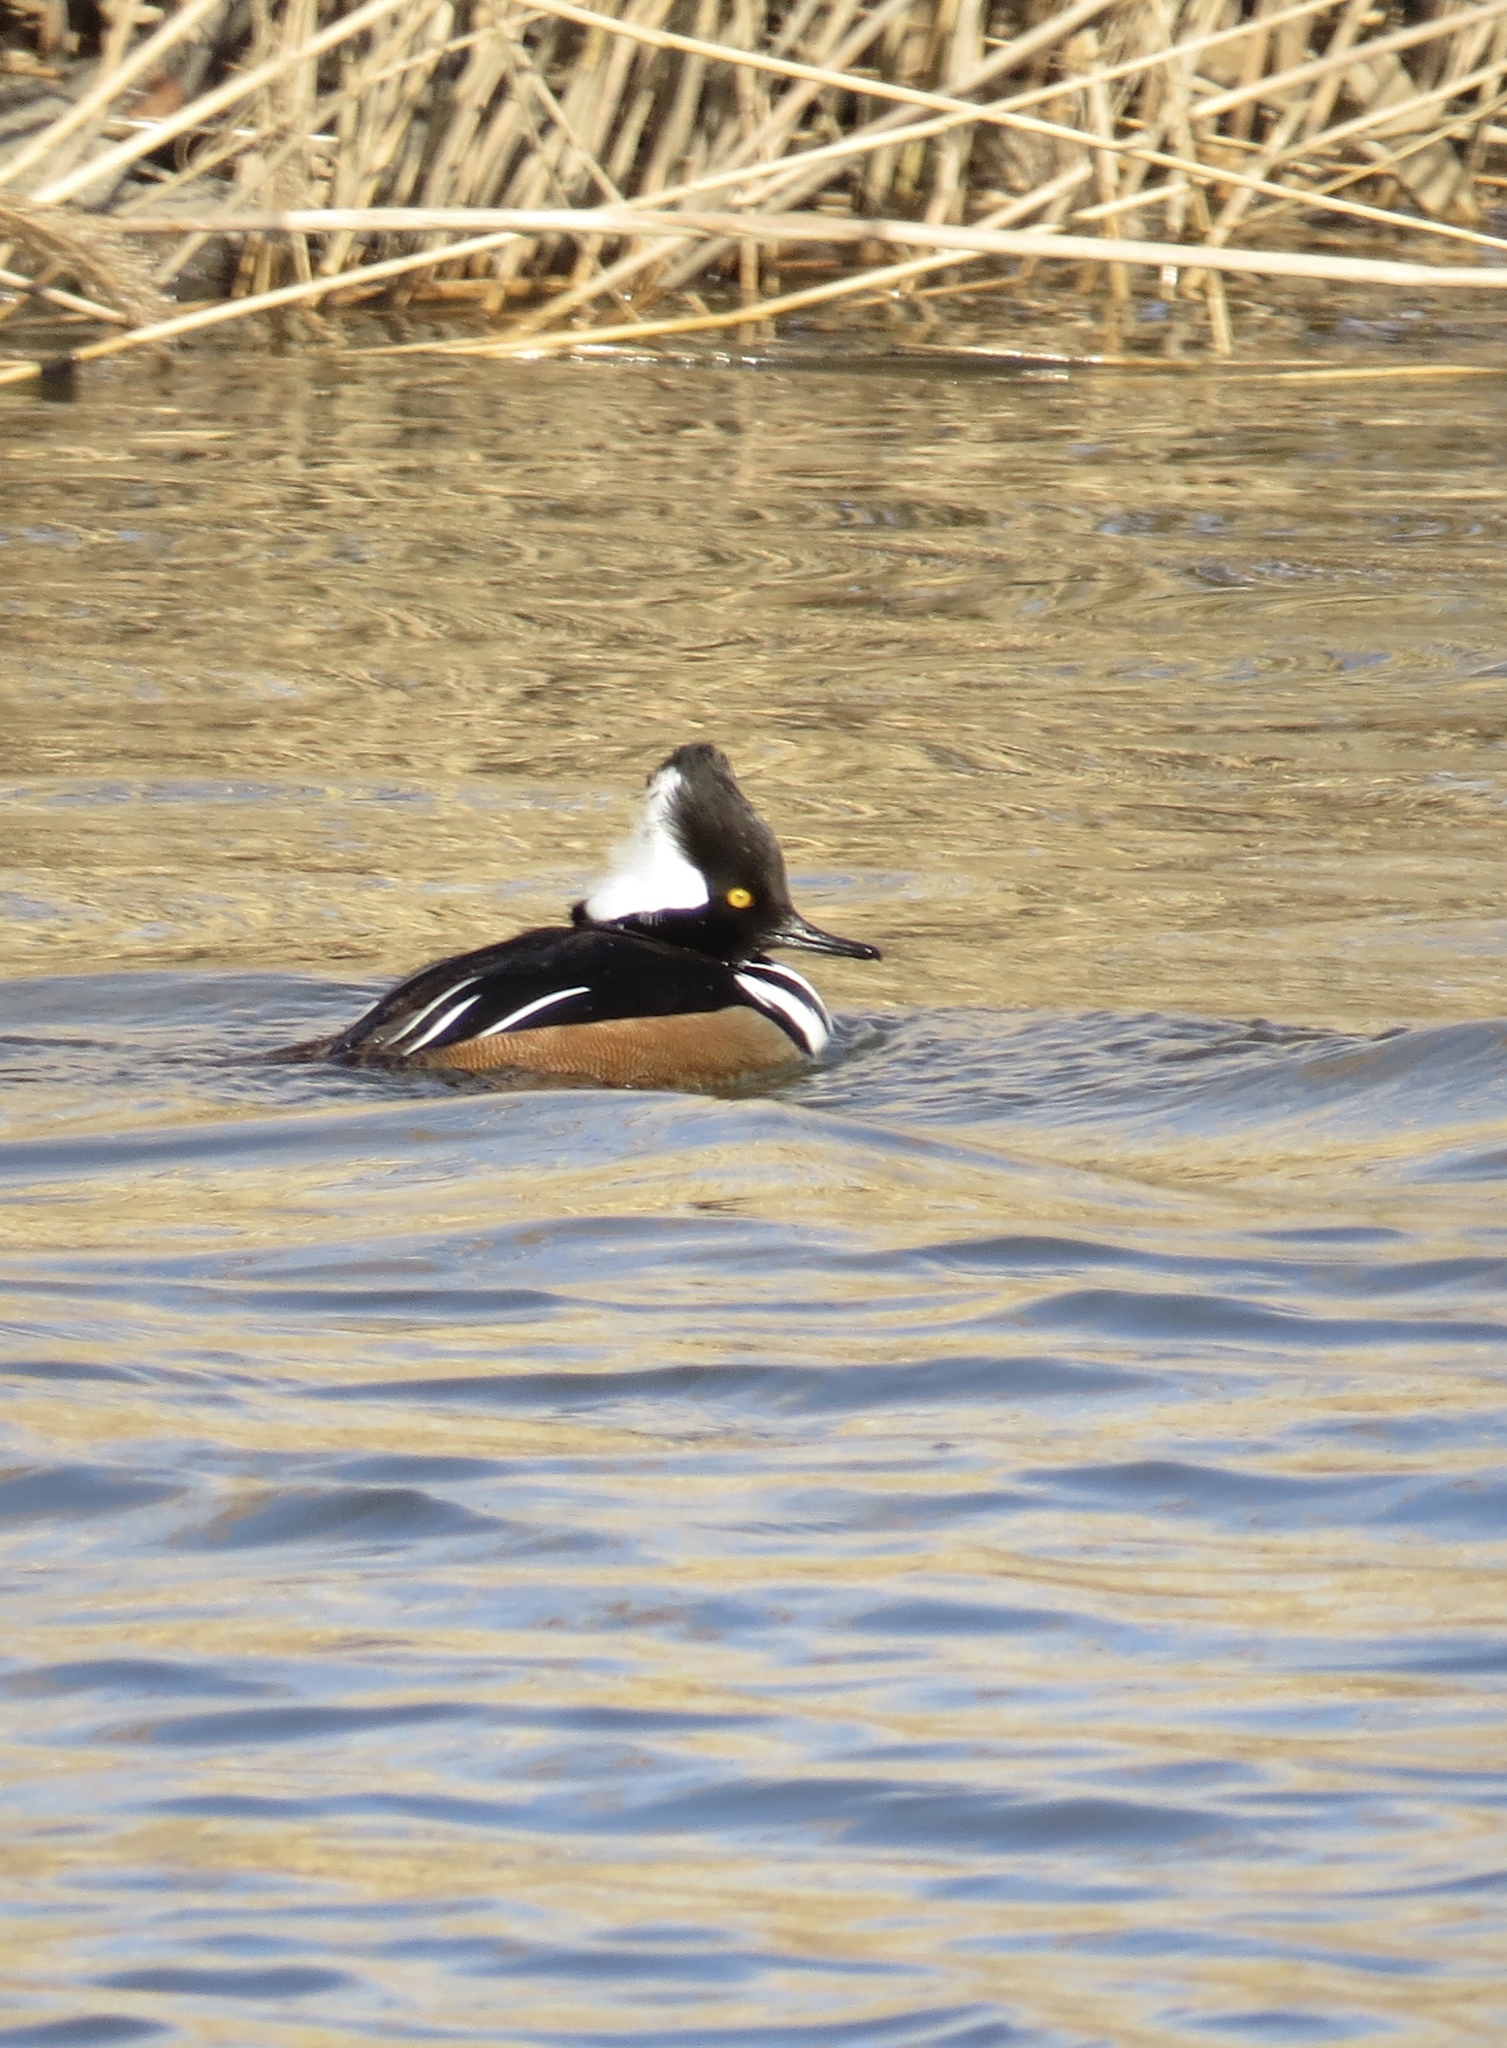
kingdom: Animalia
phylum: Chordata
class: Aves
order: Anseriformes
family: Anatidae
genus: Lophodytes
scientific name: Lophodytes cucullatus
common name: Hooded merganser
